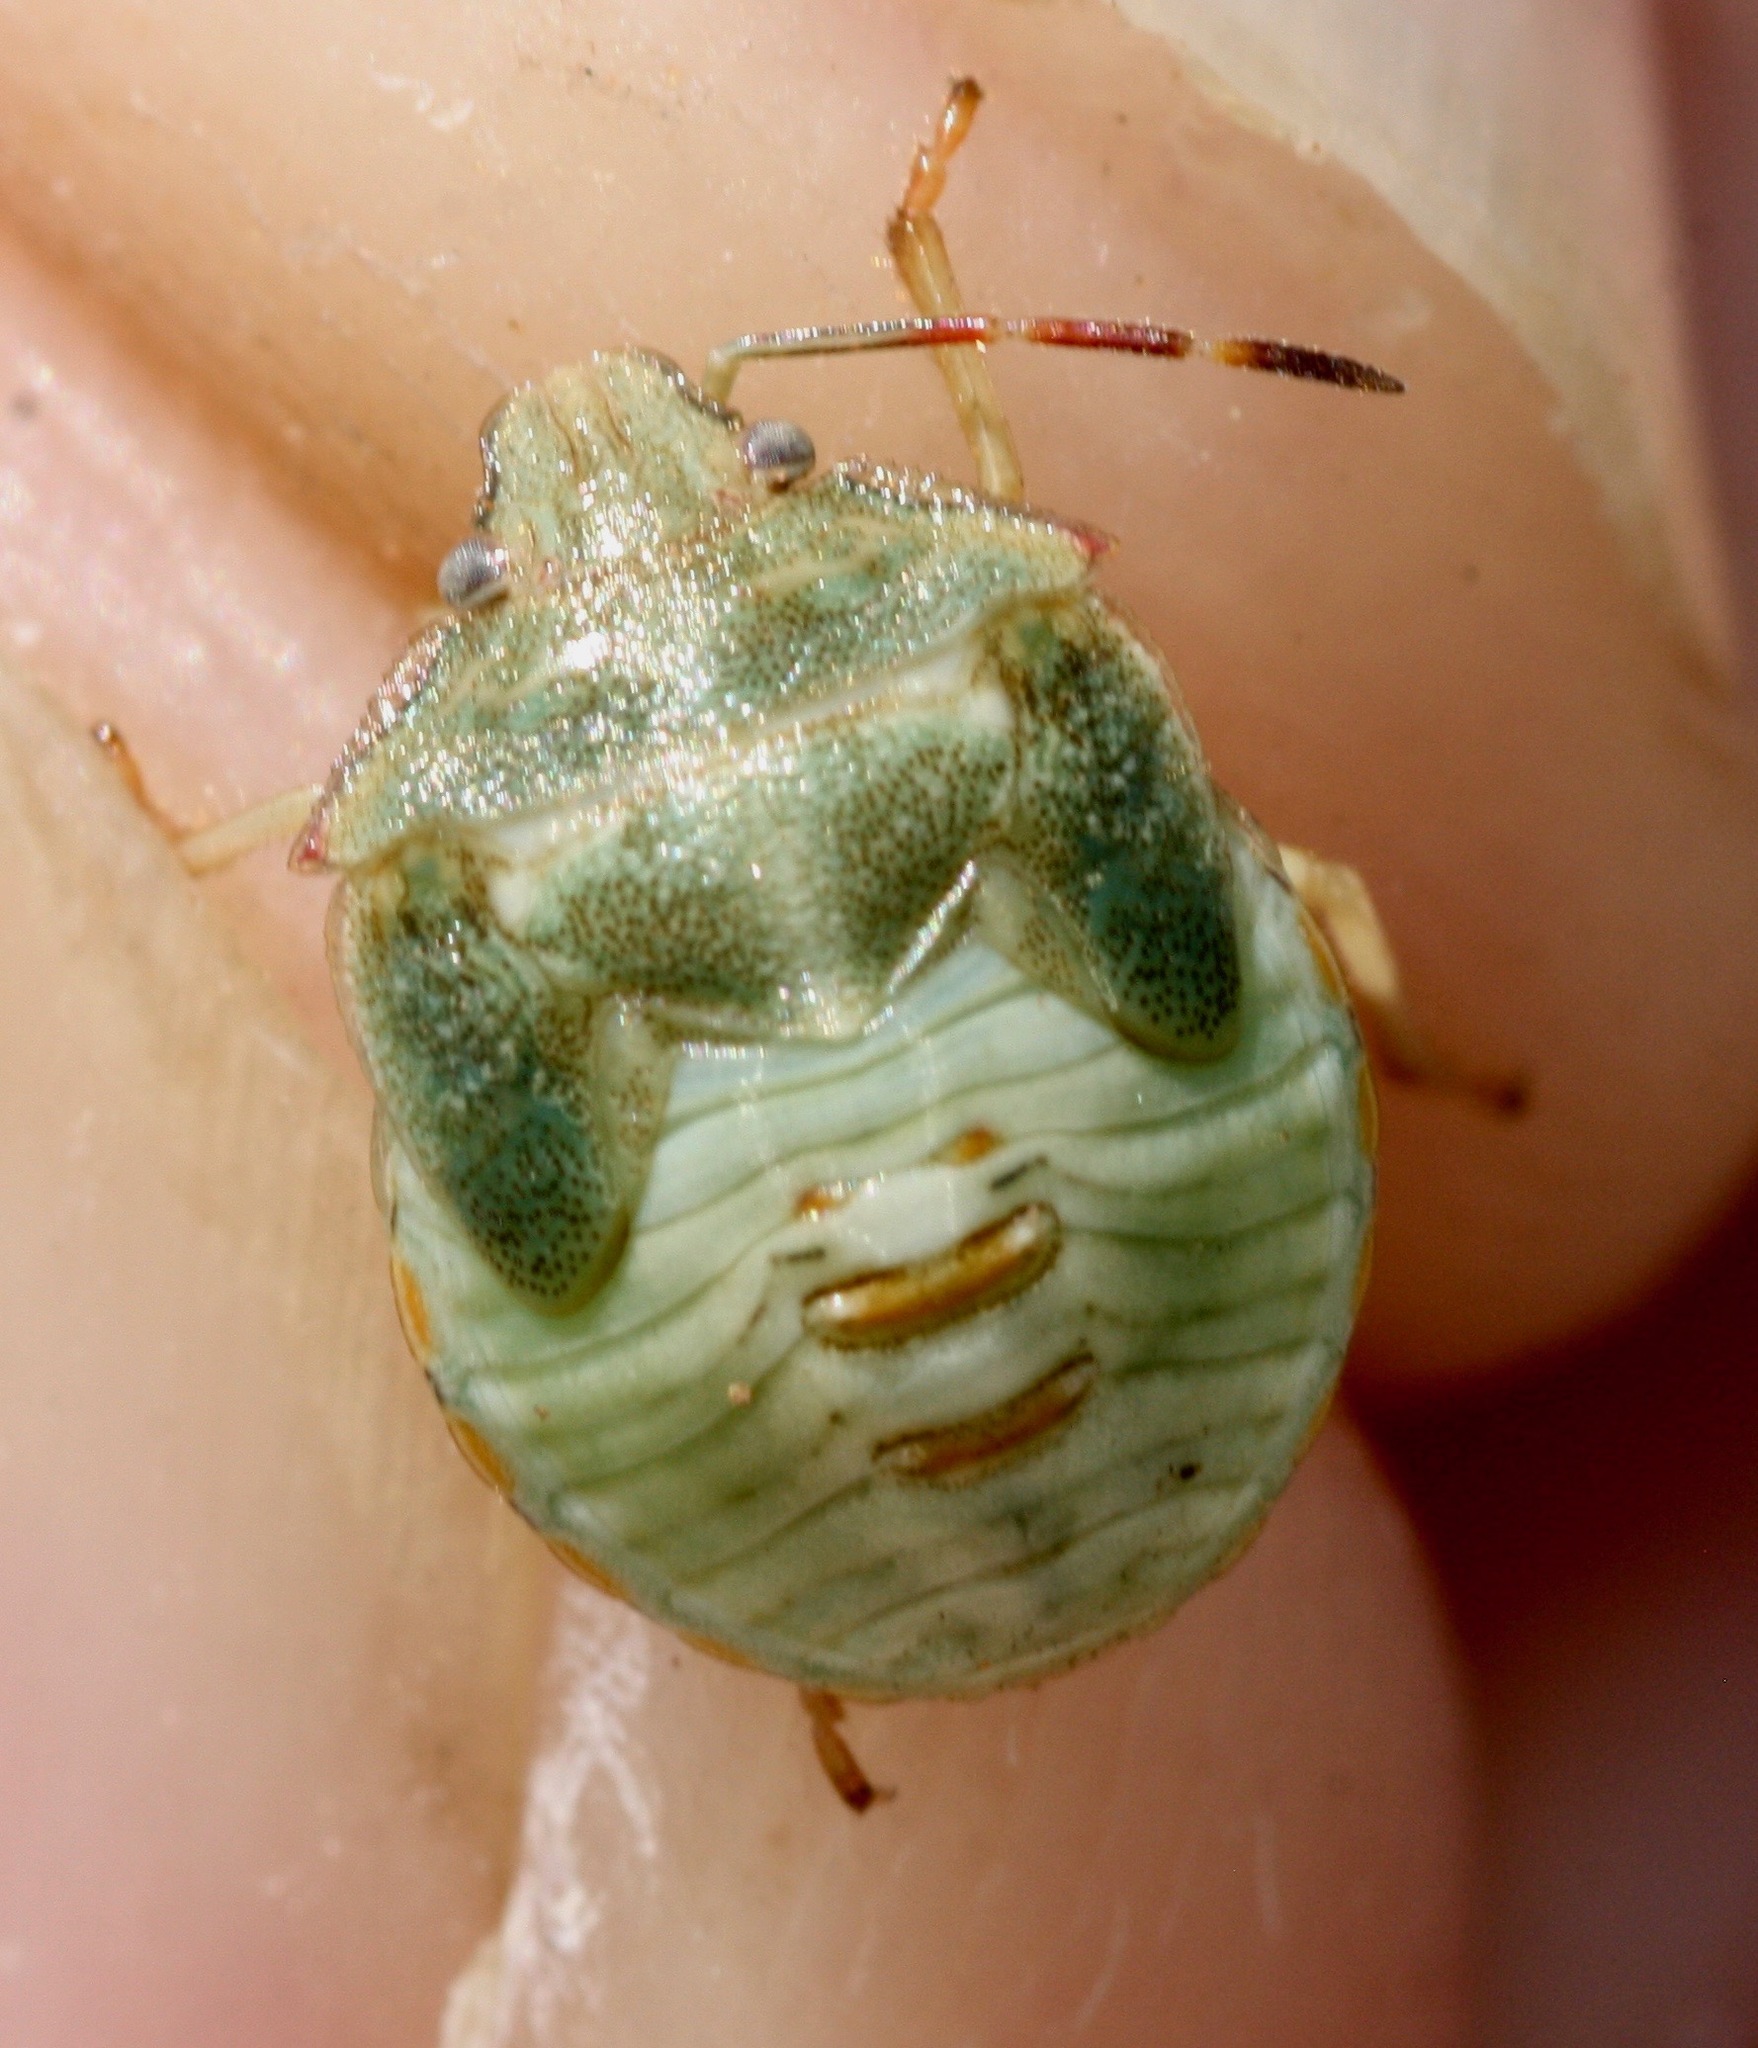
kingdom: Animalia
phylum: Arthropoda
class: Insecta
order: Hemiptera
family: Pentatomidae
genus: Thyanta
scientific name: Thyanta accerra
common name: Stink bug
